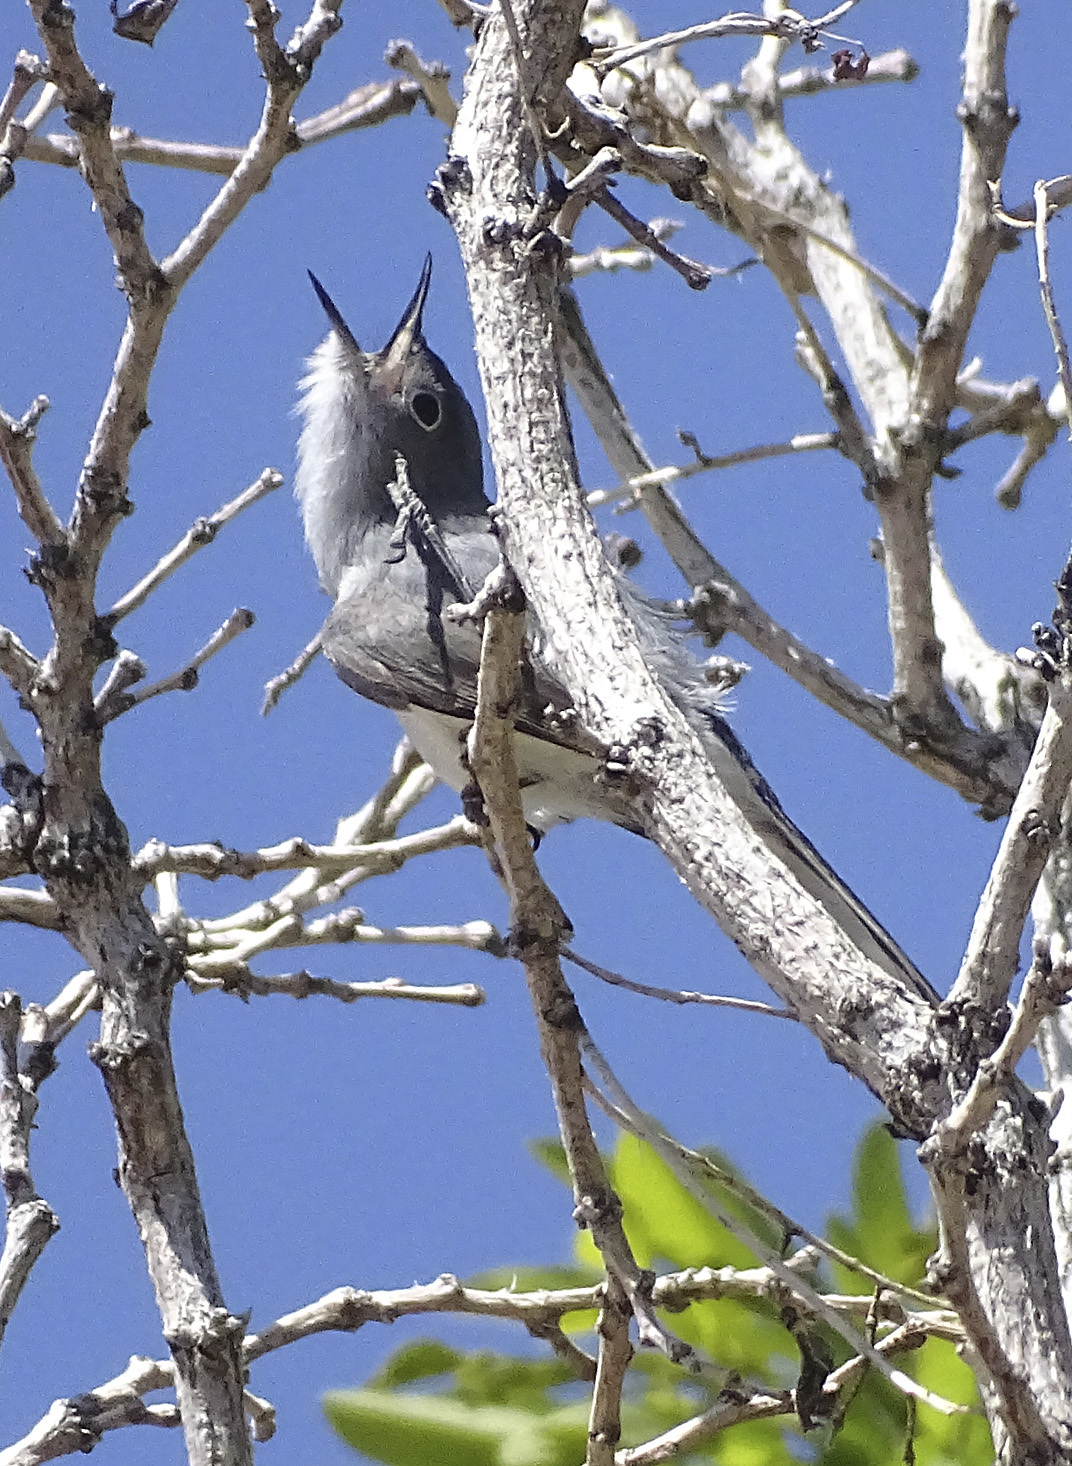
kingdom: Animalia
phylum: Chordata
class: Aves
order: Passeriformes
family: Polioptilidae
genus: Polioptila
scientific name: Polioptila caerulea
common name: Blue-gray gnatcatcher
